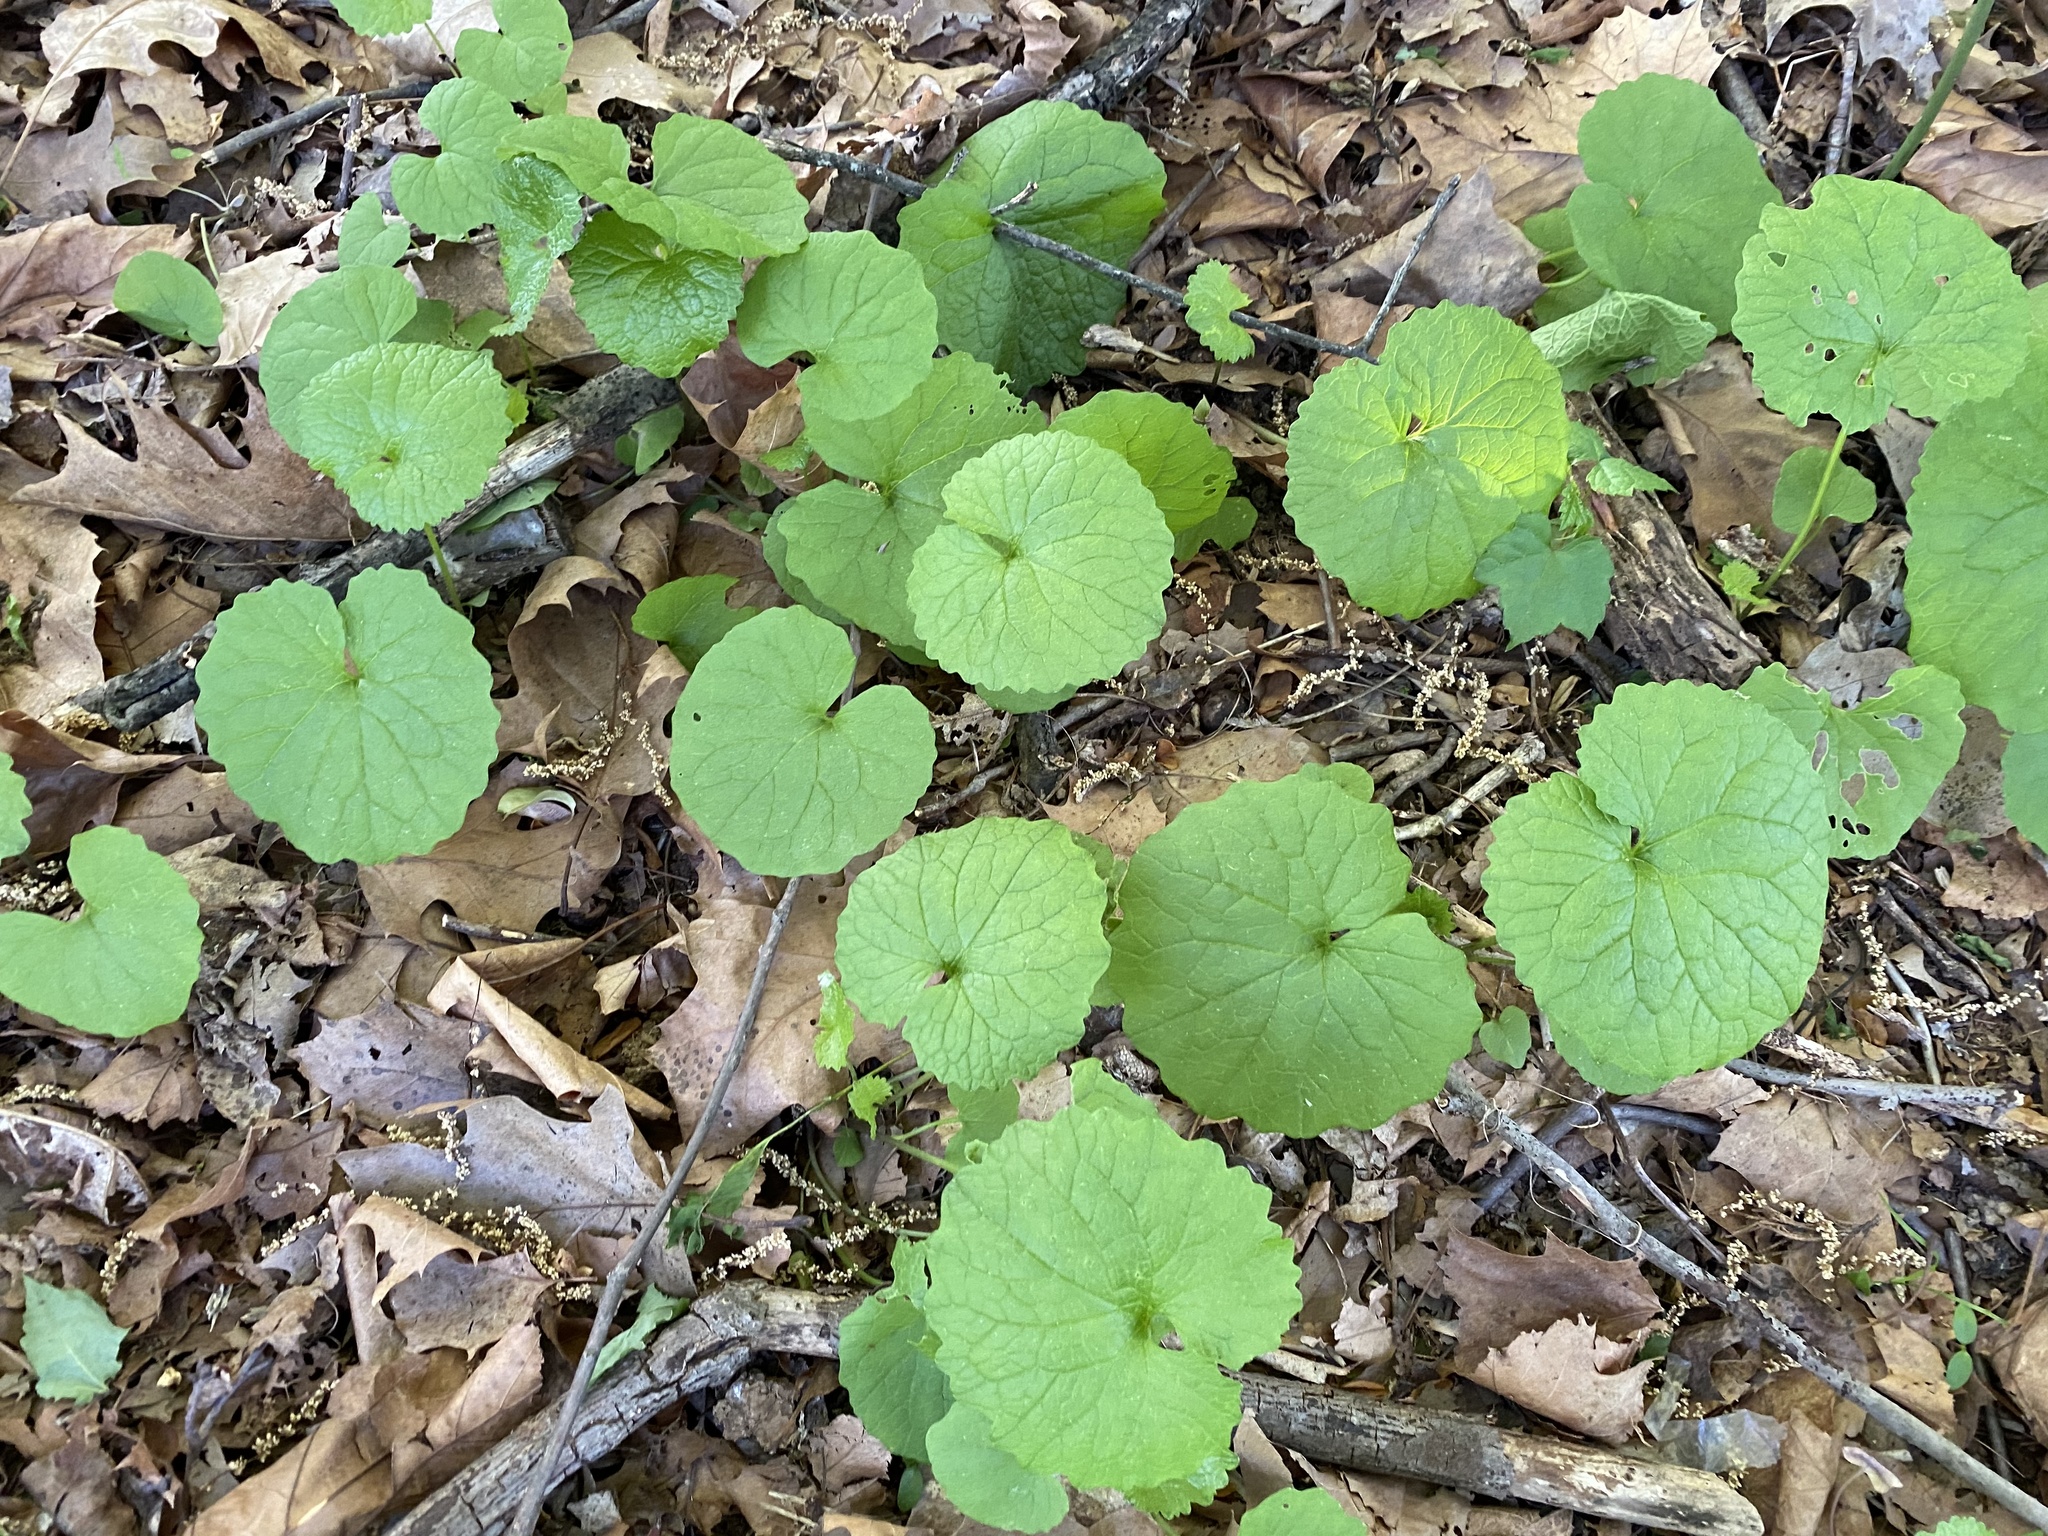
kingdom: Plantae
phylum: Tracheophyta
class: Magnoliopsida
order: Brassicales
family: Brassicaceae
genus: Alliaria
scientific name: Alliaria petiolata
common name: Garlic mustard
